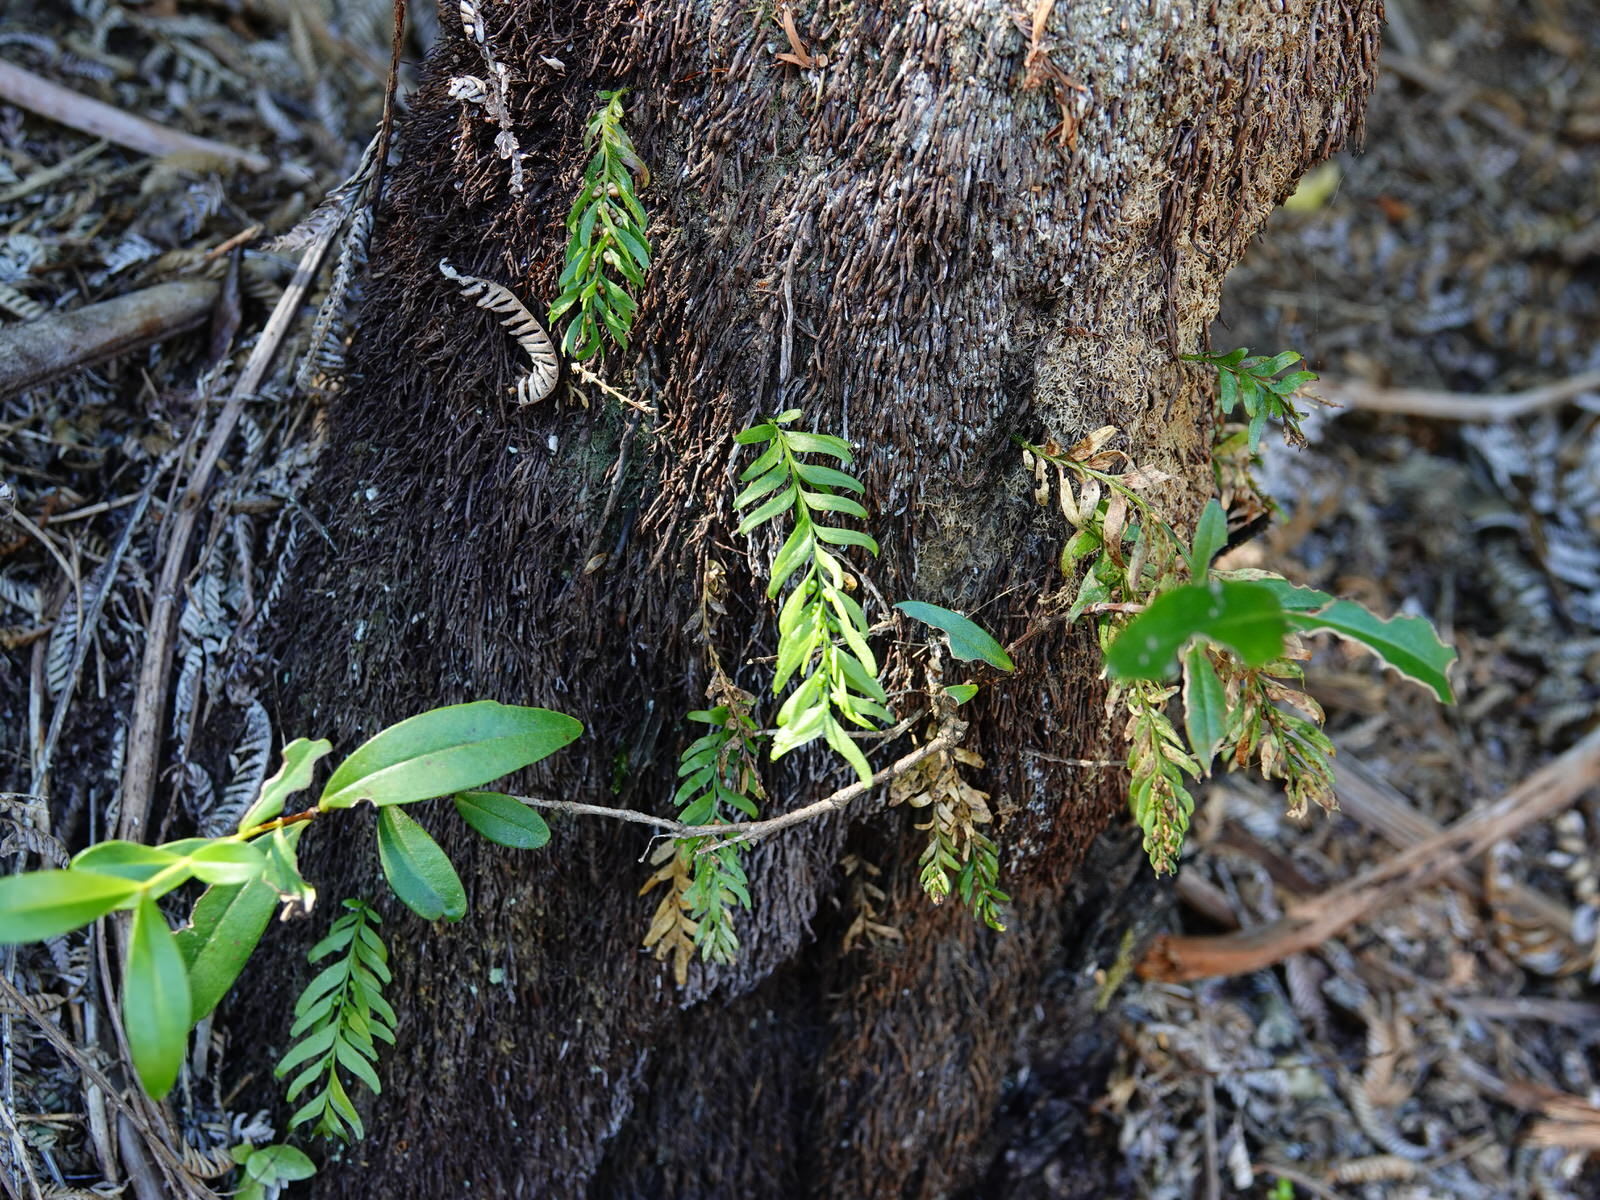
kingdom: Plantae
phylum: Tracheophyta
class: Polypodiopsida
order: Psilotales
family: Psilotaceae
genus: Tmesipteris
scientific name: Tmesipteris sigmatifolia
